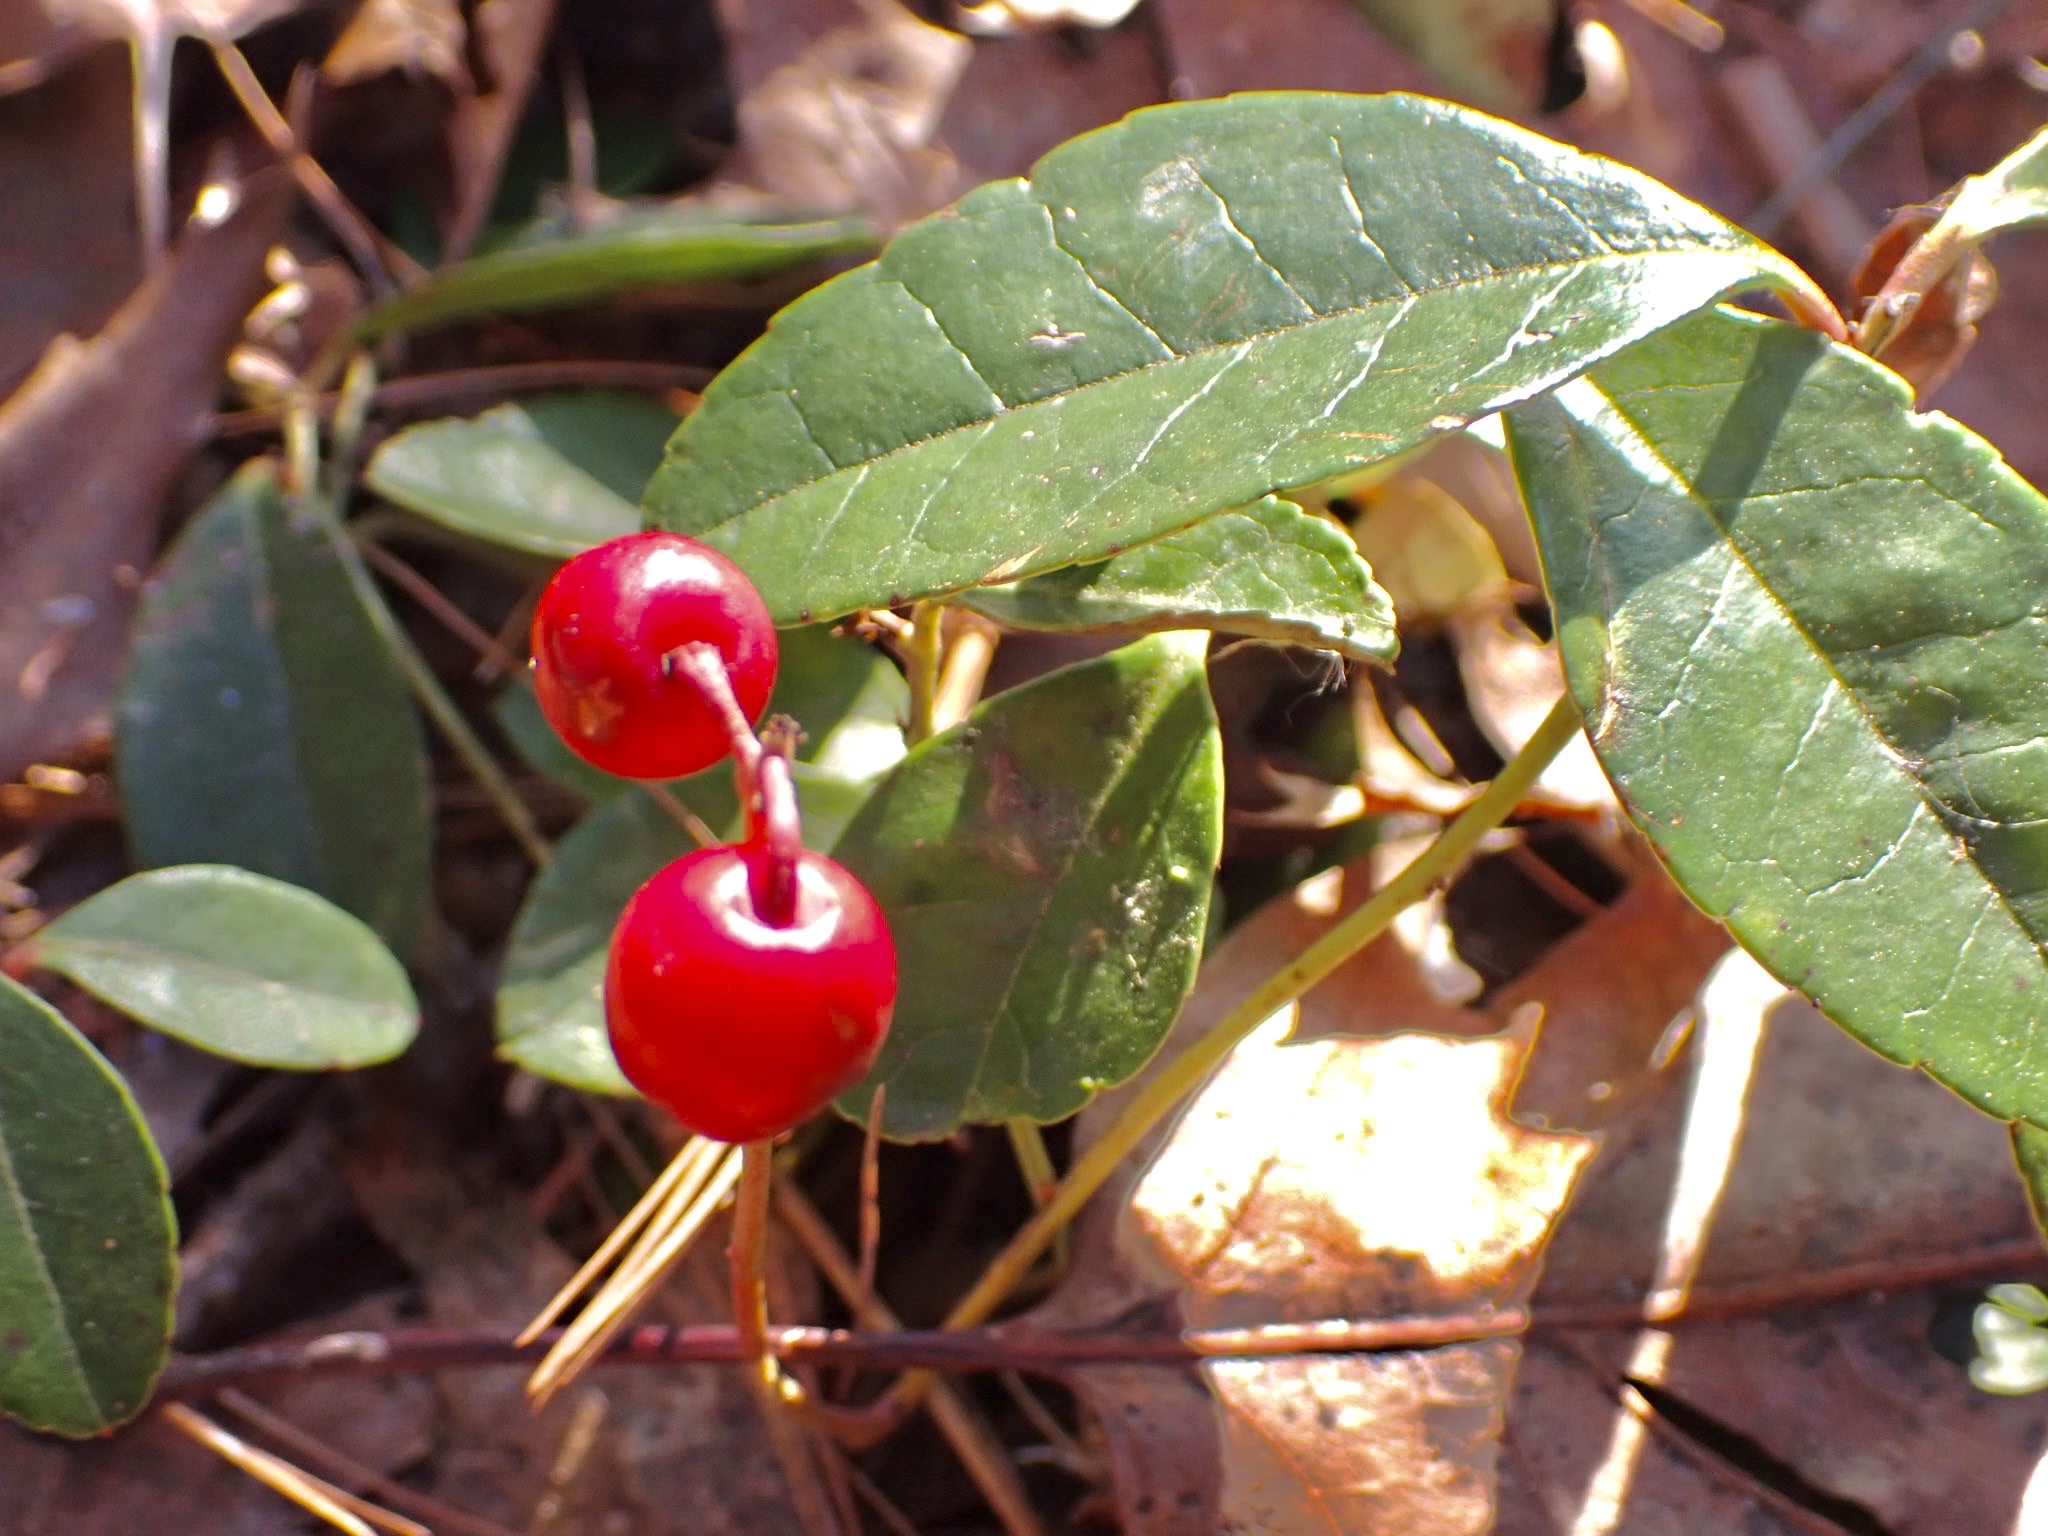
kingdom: Plantae
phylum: Tracheophyta
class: Magnoliopsida
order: Ericales
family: Ericaceae
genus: Gaultheria
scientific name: Gaultheria procumbens
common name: Checkerberry
